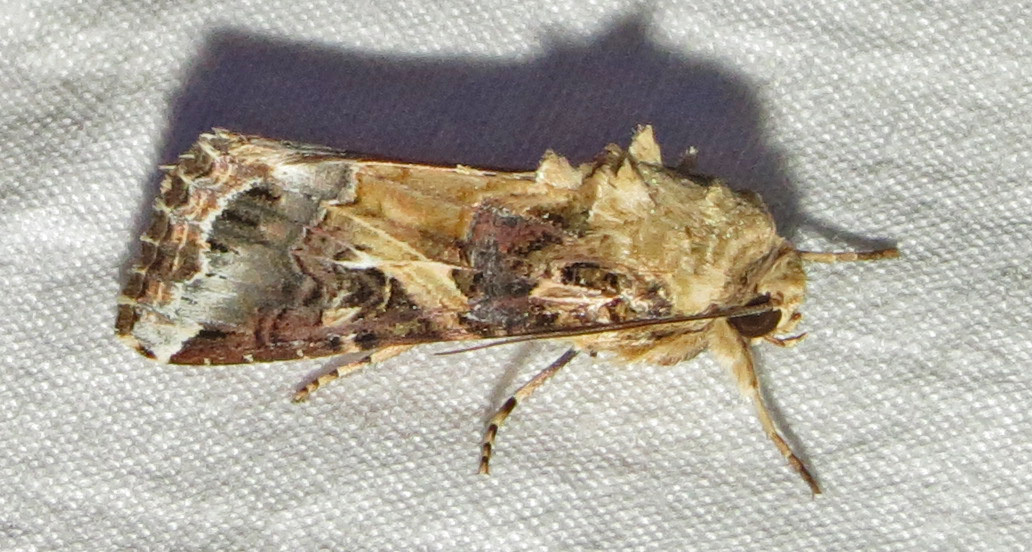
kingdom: Animalia
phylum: Arthropoda
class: Insecta
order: Lepidoptera
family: Noctuidae
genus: Spodoptera
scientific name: Spodoptera ornithogalli
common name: Yellow-striped armyworm
